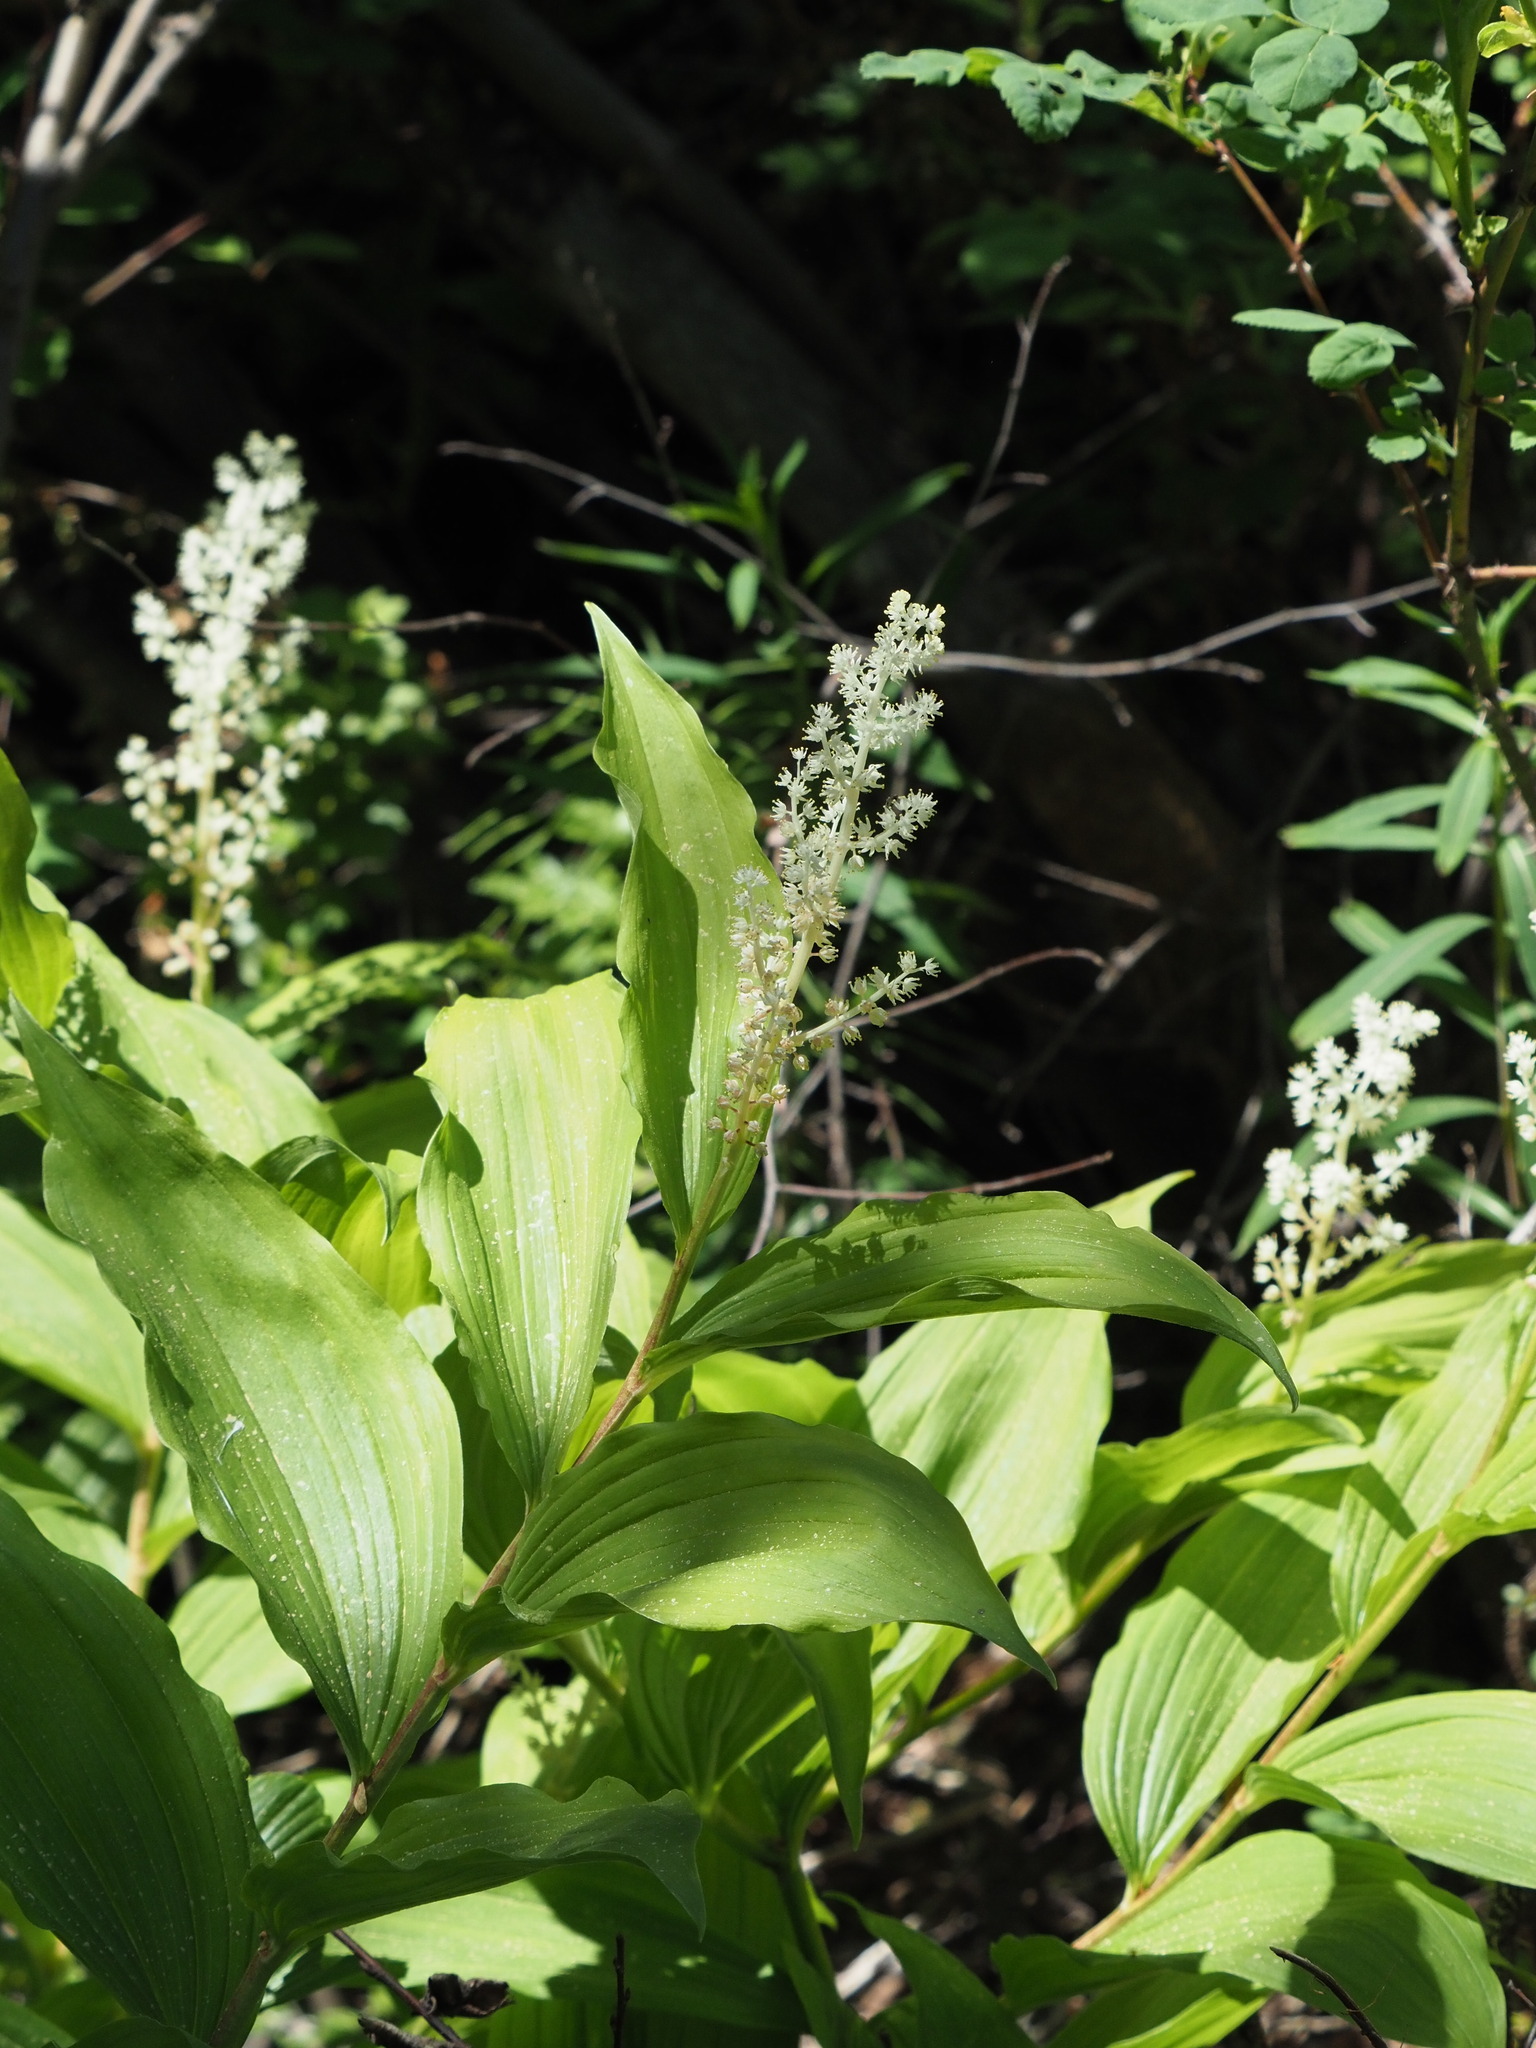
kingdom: Plantae
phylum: Tracheophyta
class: Liliopsida
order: Asparagales
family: Asparagaceae
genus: Maianthemum
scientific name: Maianthemum racemosum
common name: False spikenard
